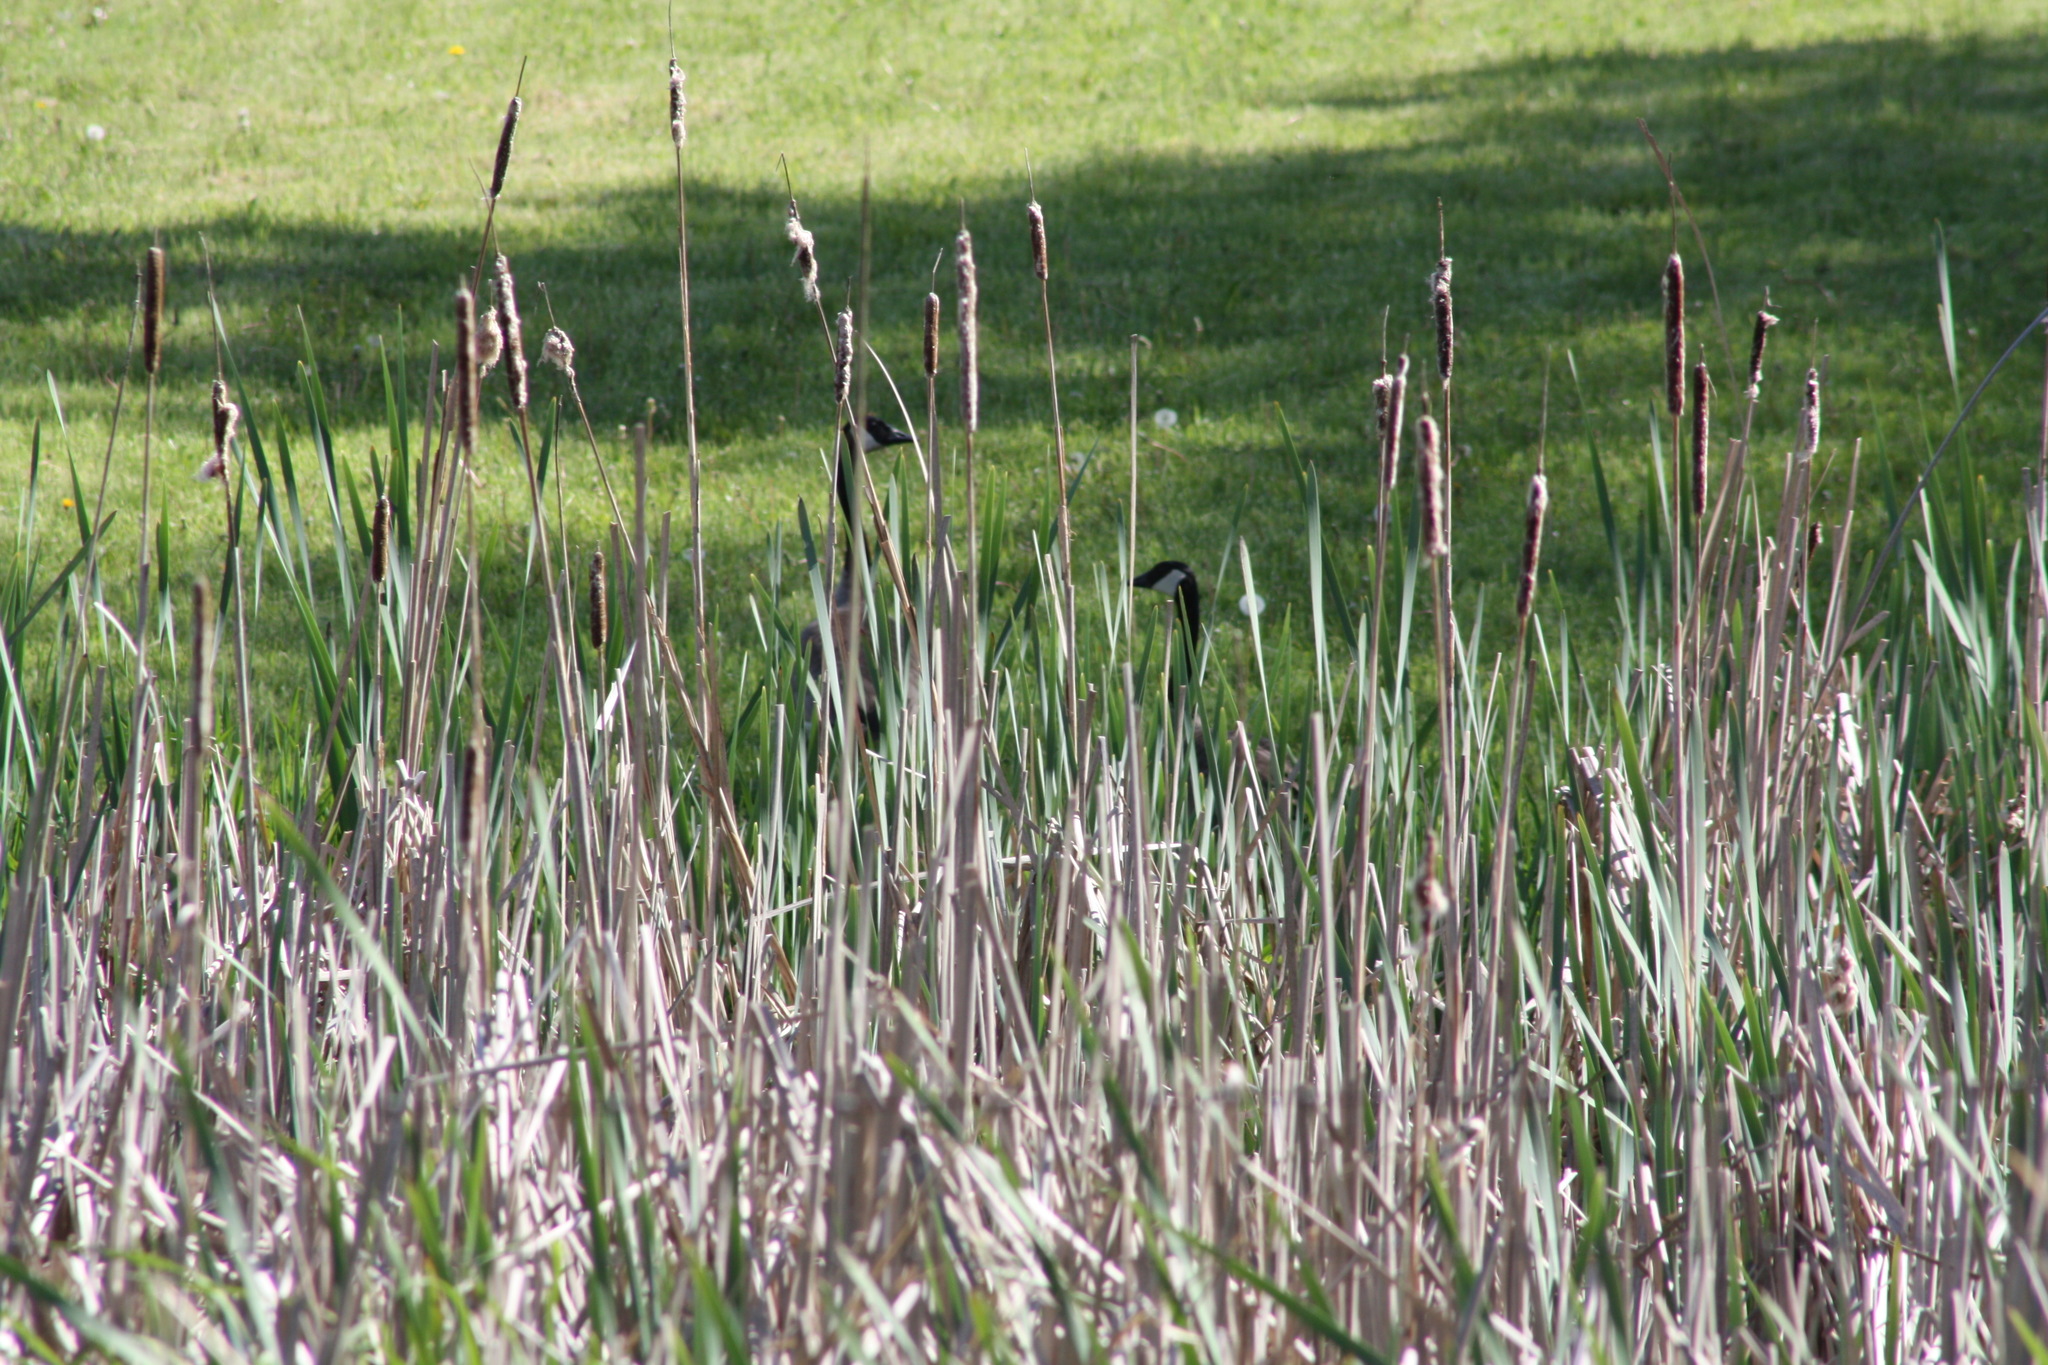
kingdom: Animalia
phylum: Chordata
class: Aves
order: Anseriformes
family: Anatidae
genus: Branta
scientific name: Branta canadensis
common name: Canada goose
